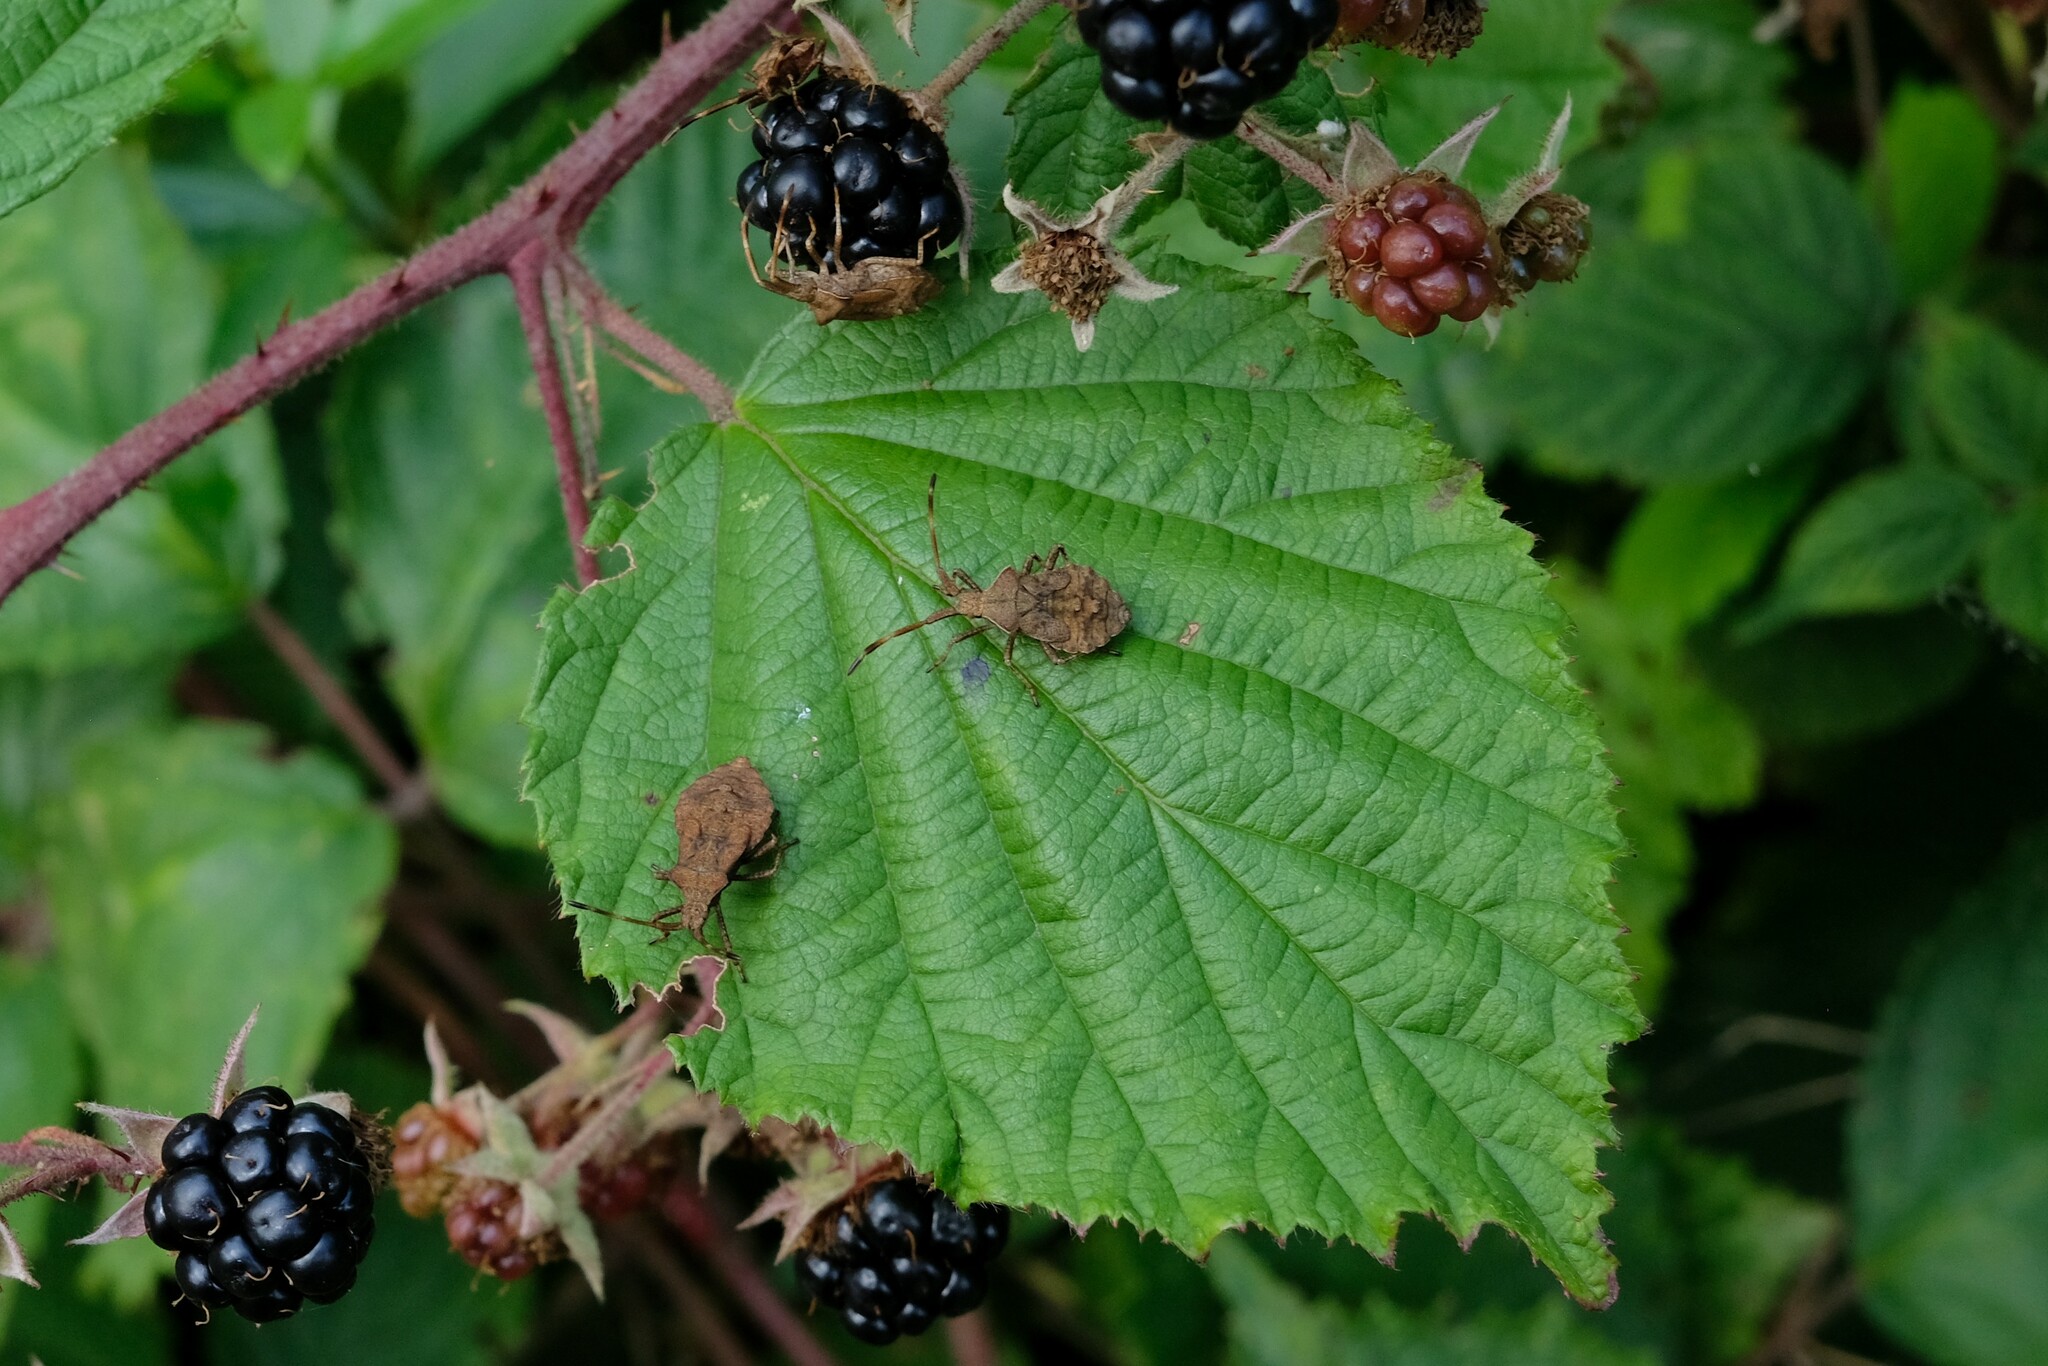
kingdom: Animalia
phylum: Arthropoda
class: Insecta
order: Hemiptera
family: Coreidae
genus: Coreus
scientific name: Coreus marginatus
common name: Dock bug
